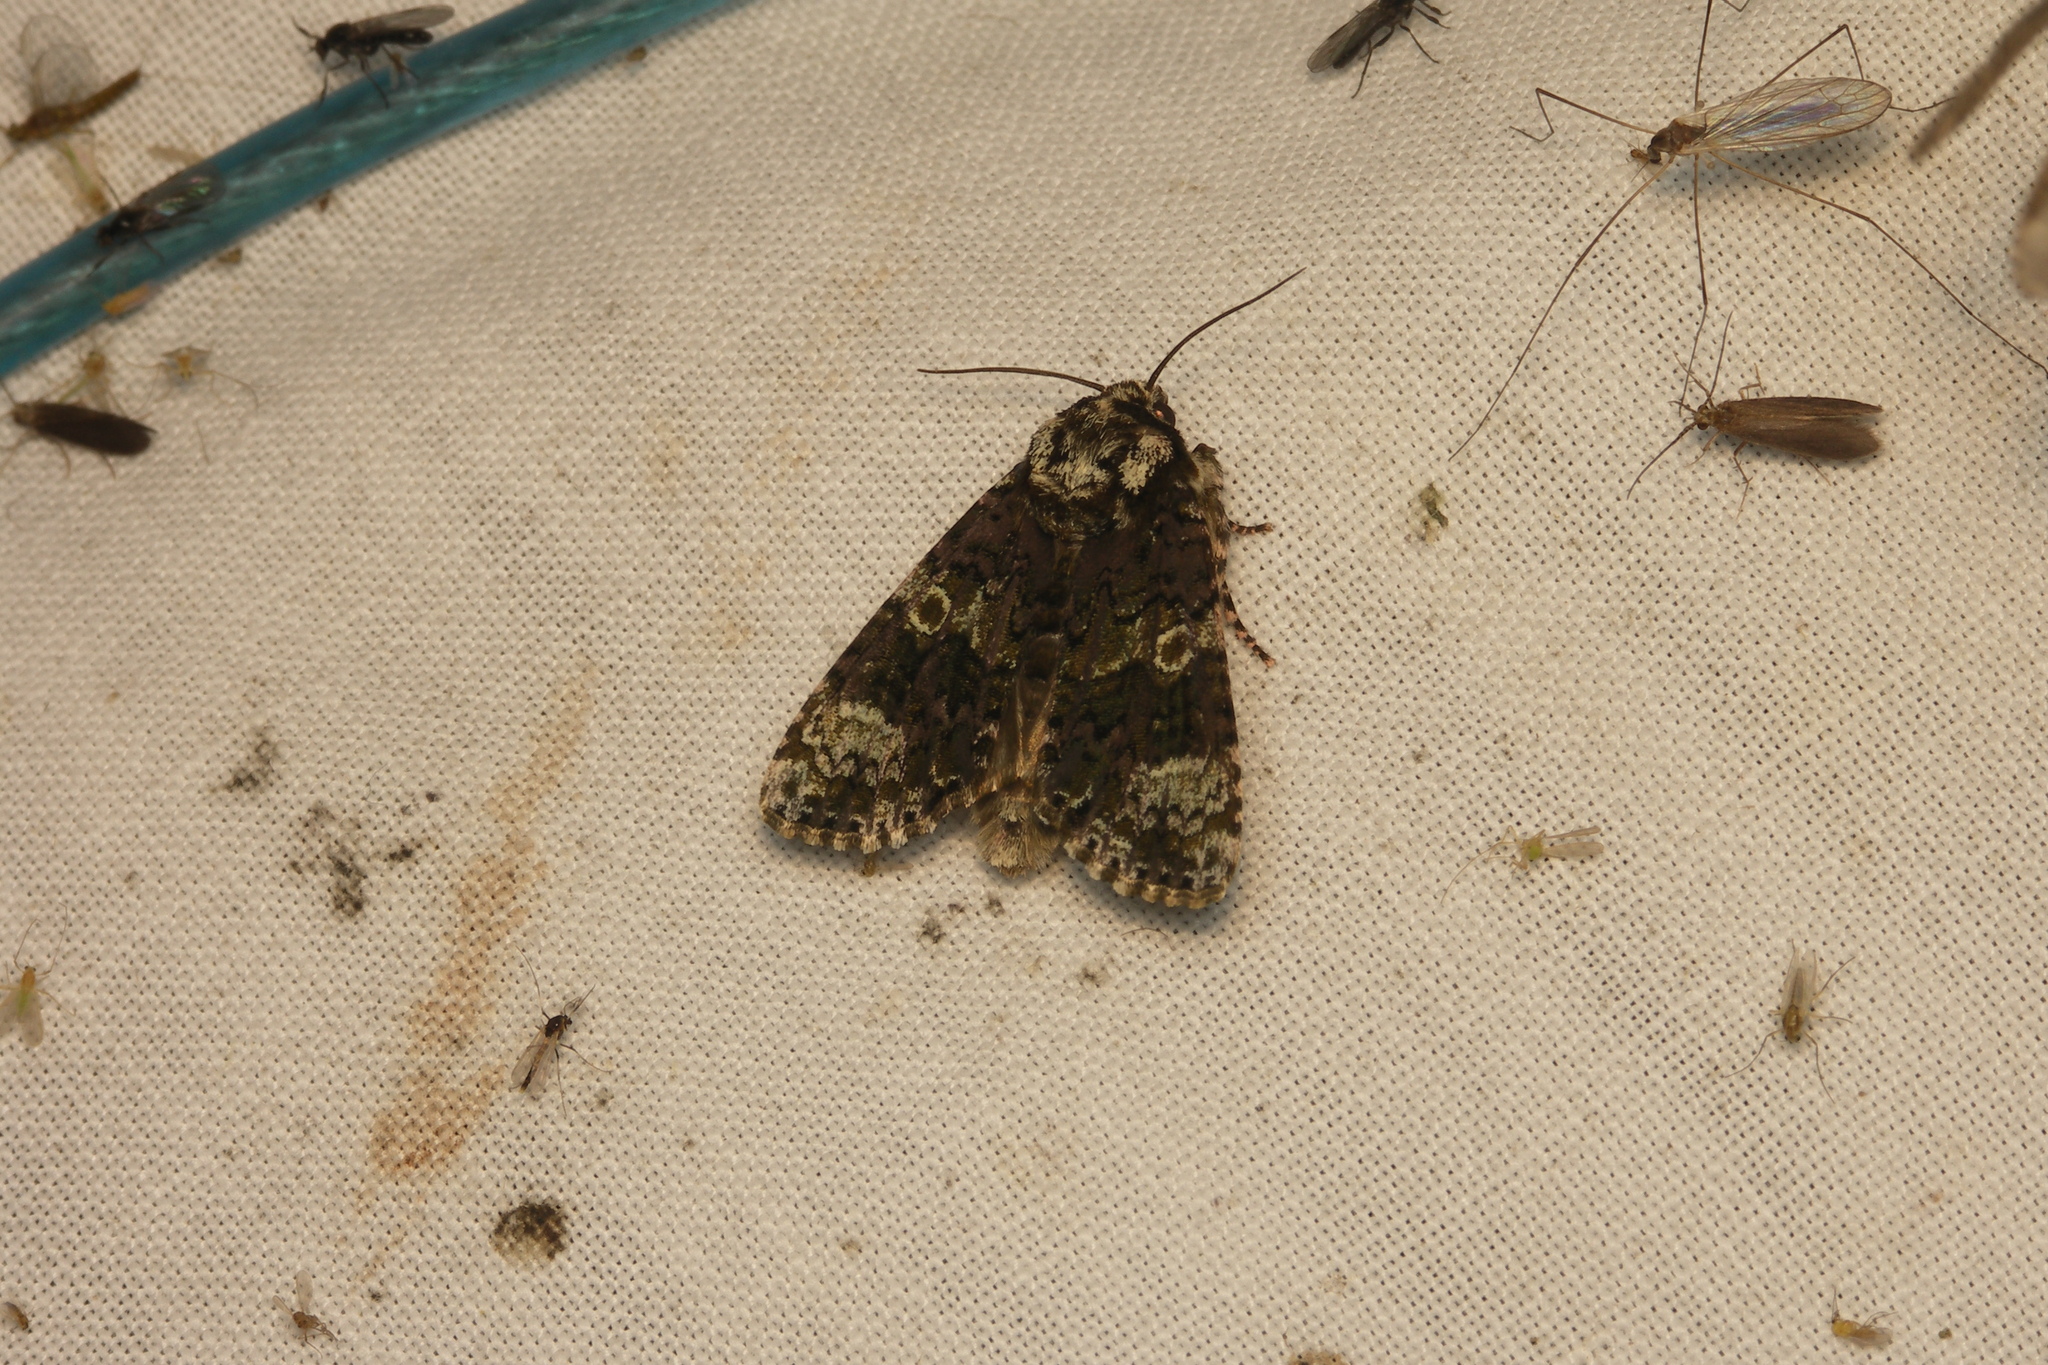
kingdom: Animalia
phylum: Arthropoda
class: Insecta
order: Lepidoptera
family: Noctuidae
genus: Craniophora
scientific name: Craniophora ligustri
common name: Coronet
